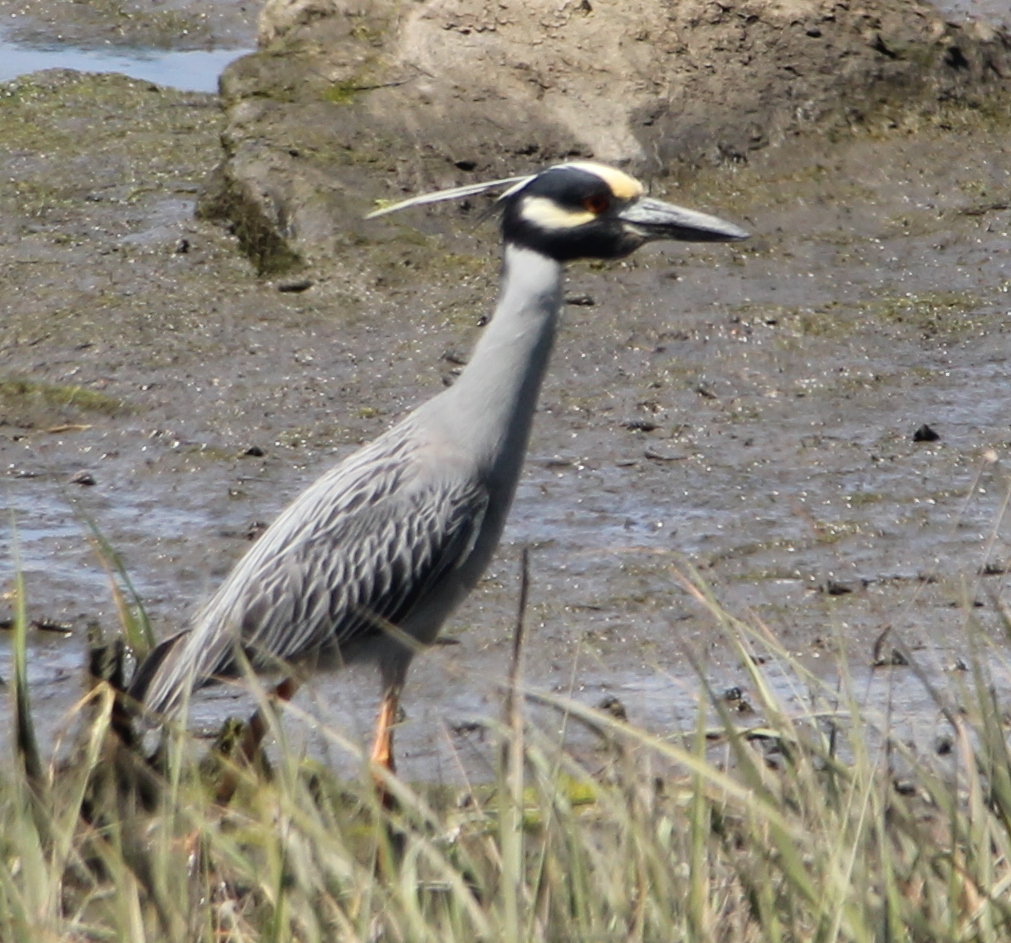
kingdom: Animalia
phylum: Chordata
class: Aves
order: Pelecaniformes
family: Ardeidae
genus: Nyctanassa
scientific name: Nyctanassa violacea
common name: Yellow-crowned night heron
